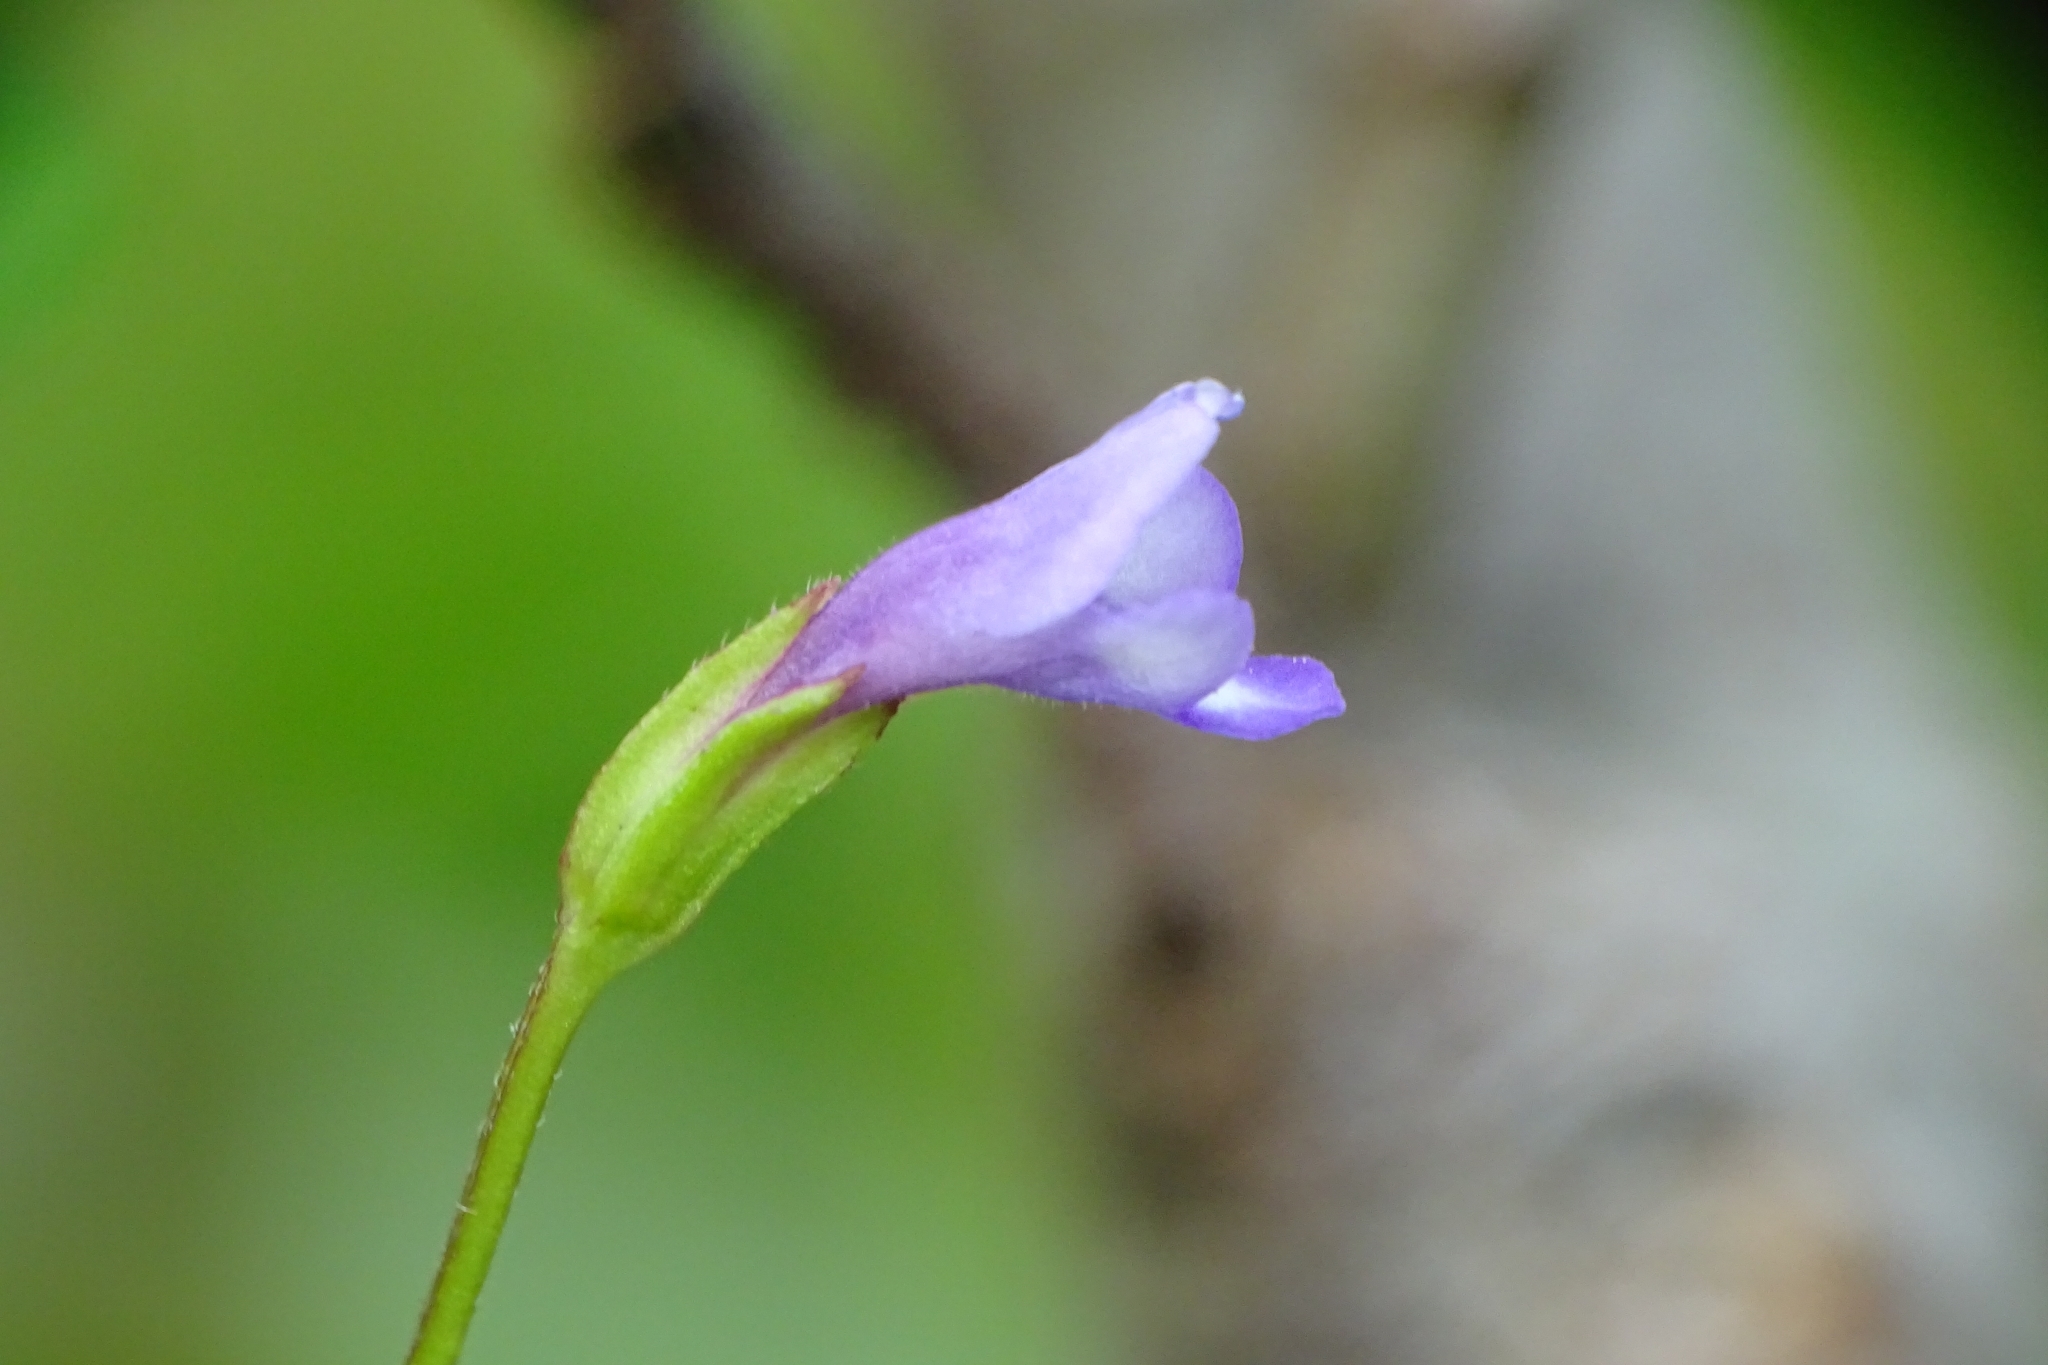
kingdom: Plantae
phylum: Tracheophyta
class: Magnoliopsida
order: Lamiales
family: Linderniaceae
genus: Torenia
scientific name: Torenia crustacea
